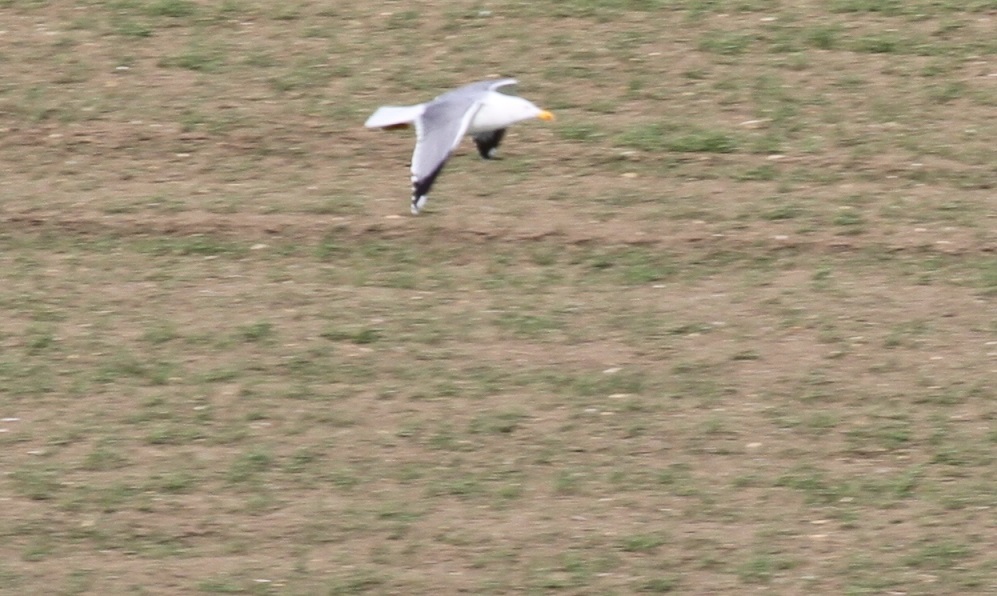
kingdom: Animalia
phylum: Chordata
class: Aves
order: Charadriiformes
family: Laridae
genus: Larus
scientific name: Larus michahellis
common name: Yellow-legged gull
